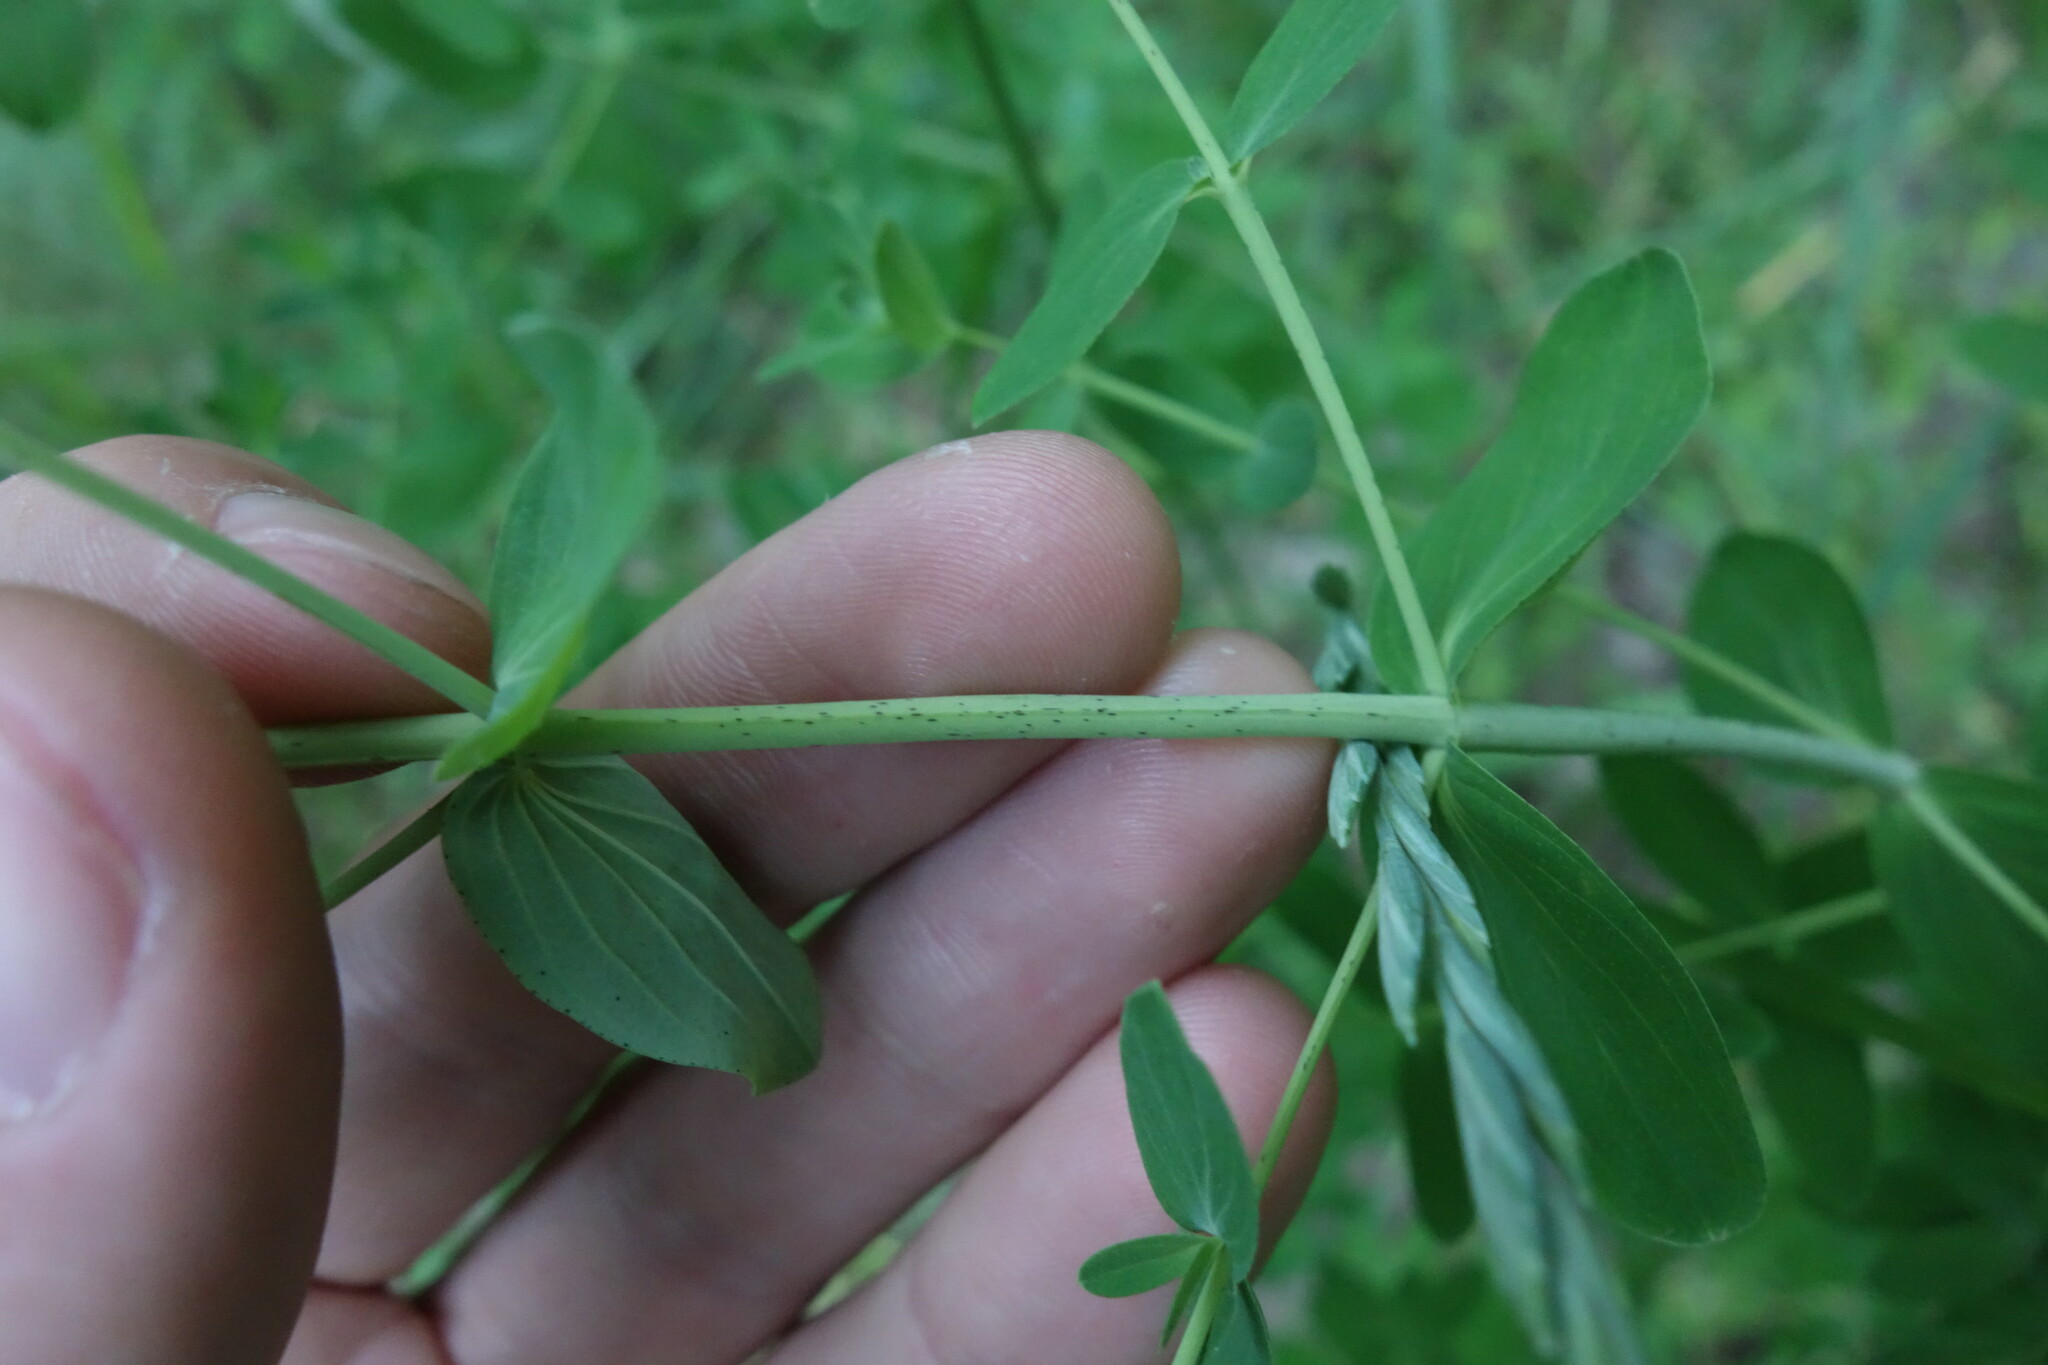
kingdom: Plantae
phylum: Tracheophyta
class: Magnoliopsida
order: Malpighiales
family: Hypericaceae
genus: Hypericum
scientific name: Hypericum perforatum
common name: Common st. johnswort
